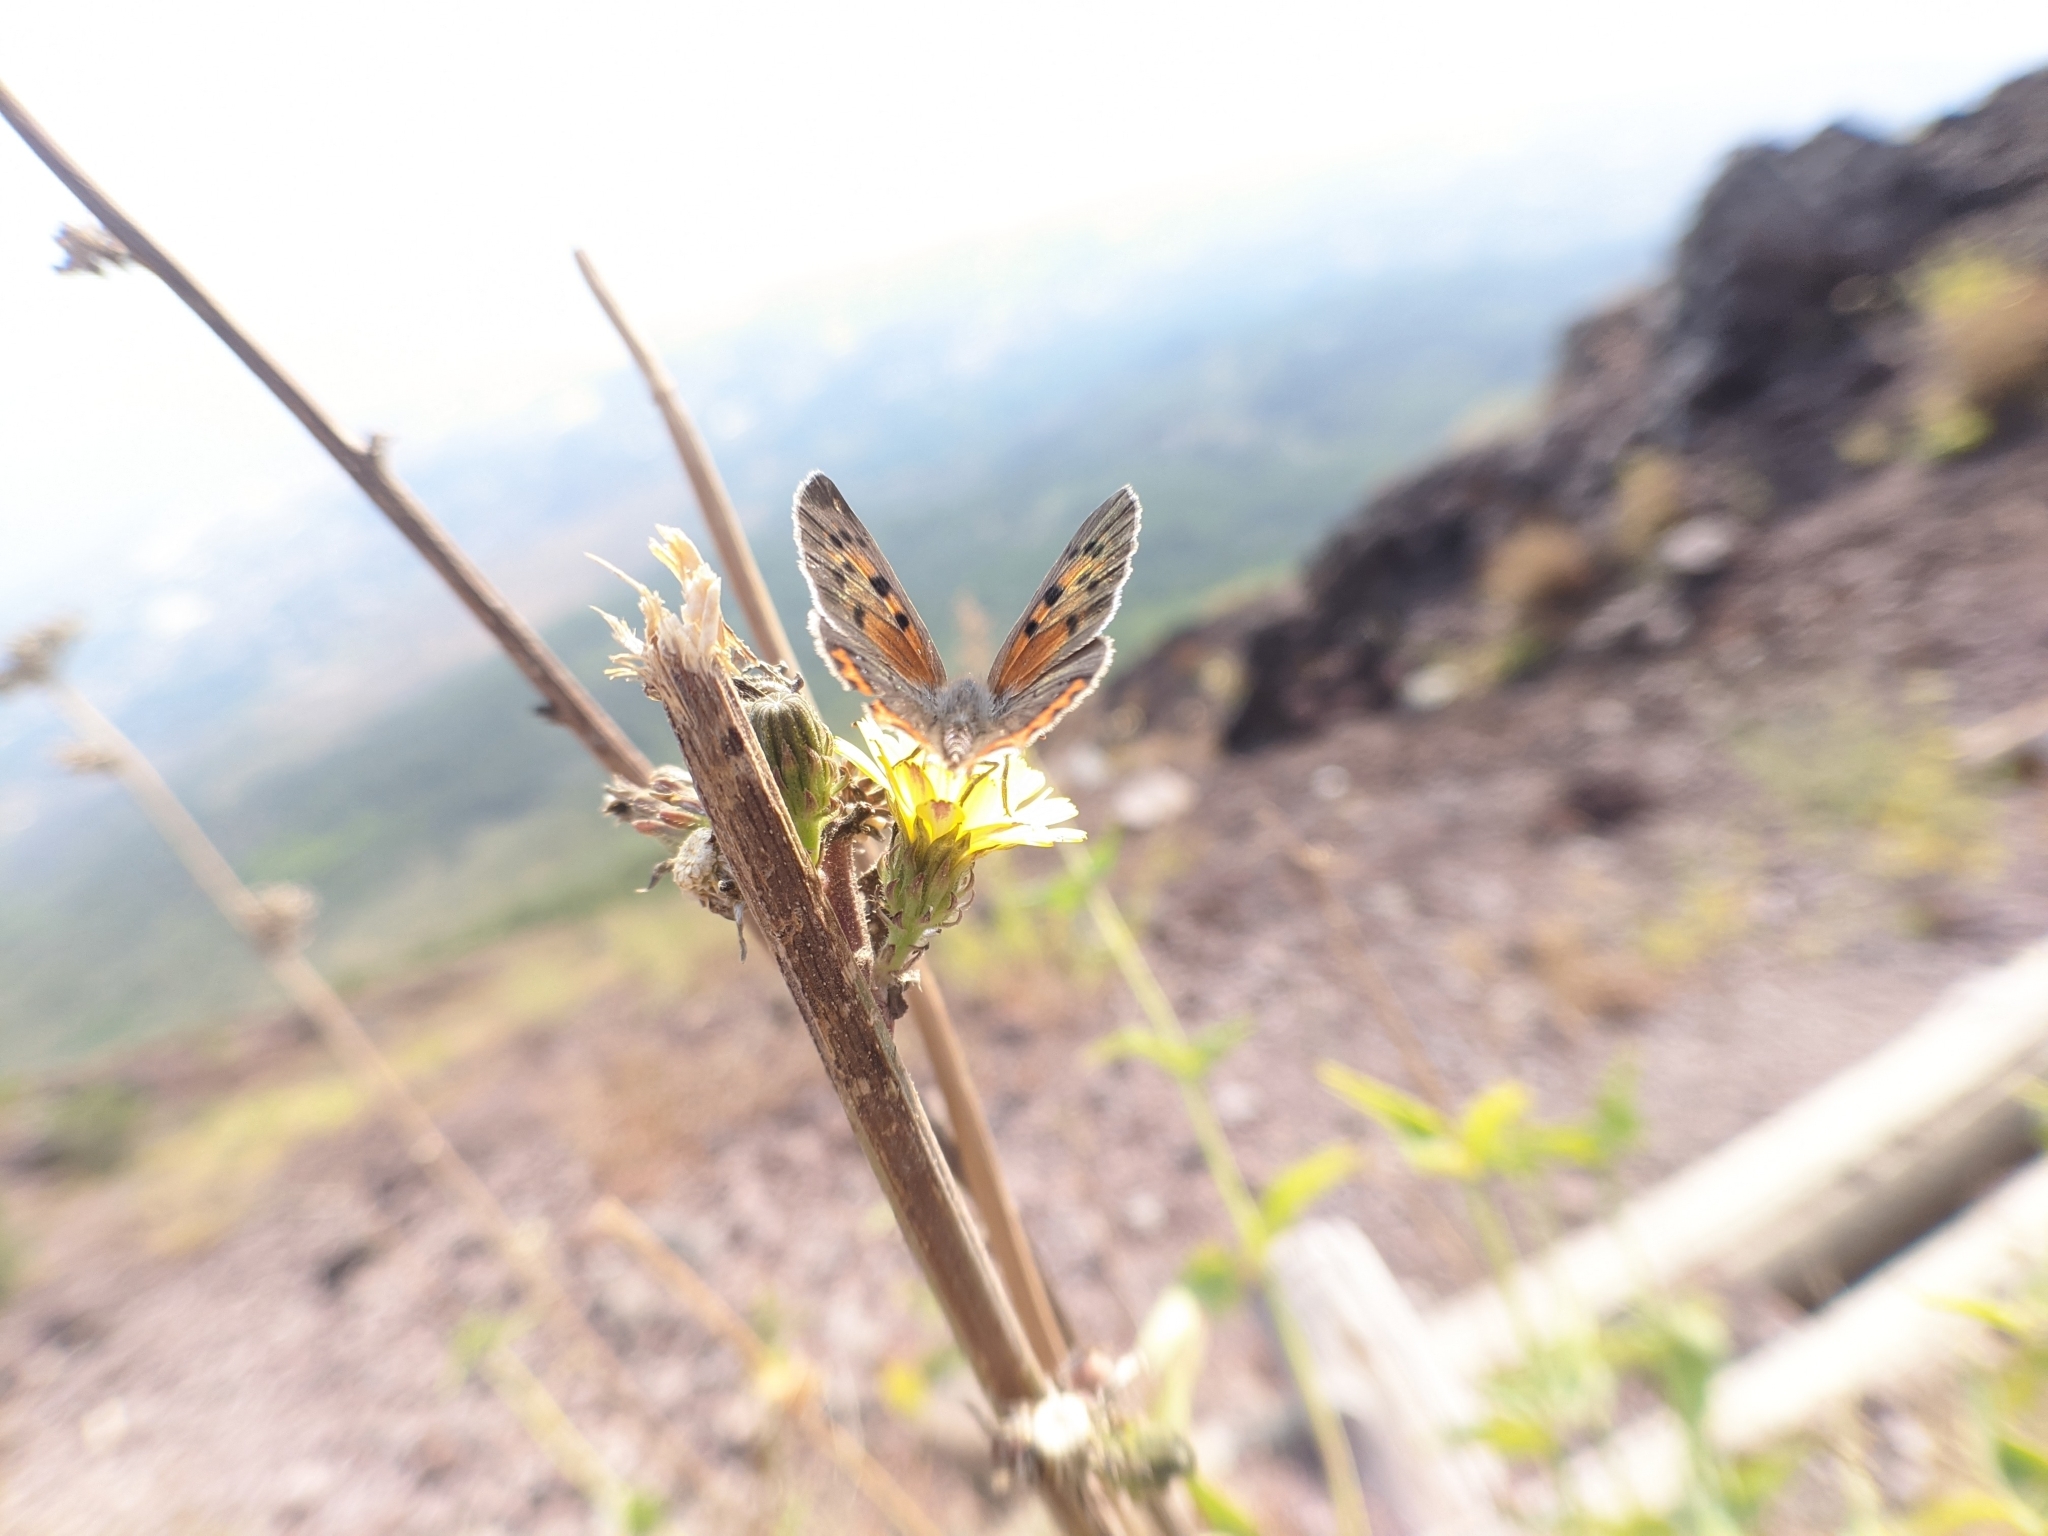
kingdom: Animalia
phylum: Arthropoda
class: Insecta
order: Lepidoptera
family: Lycaenidae
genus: Lycaena
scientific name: Lycaena phlaeas
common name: Small copper
